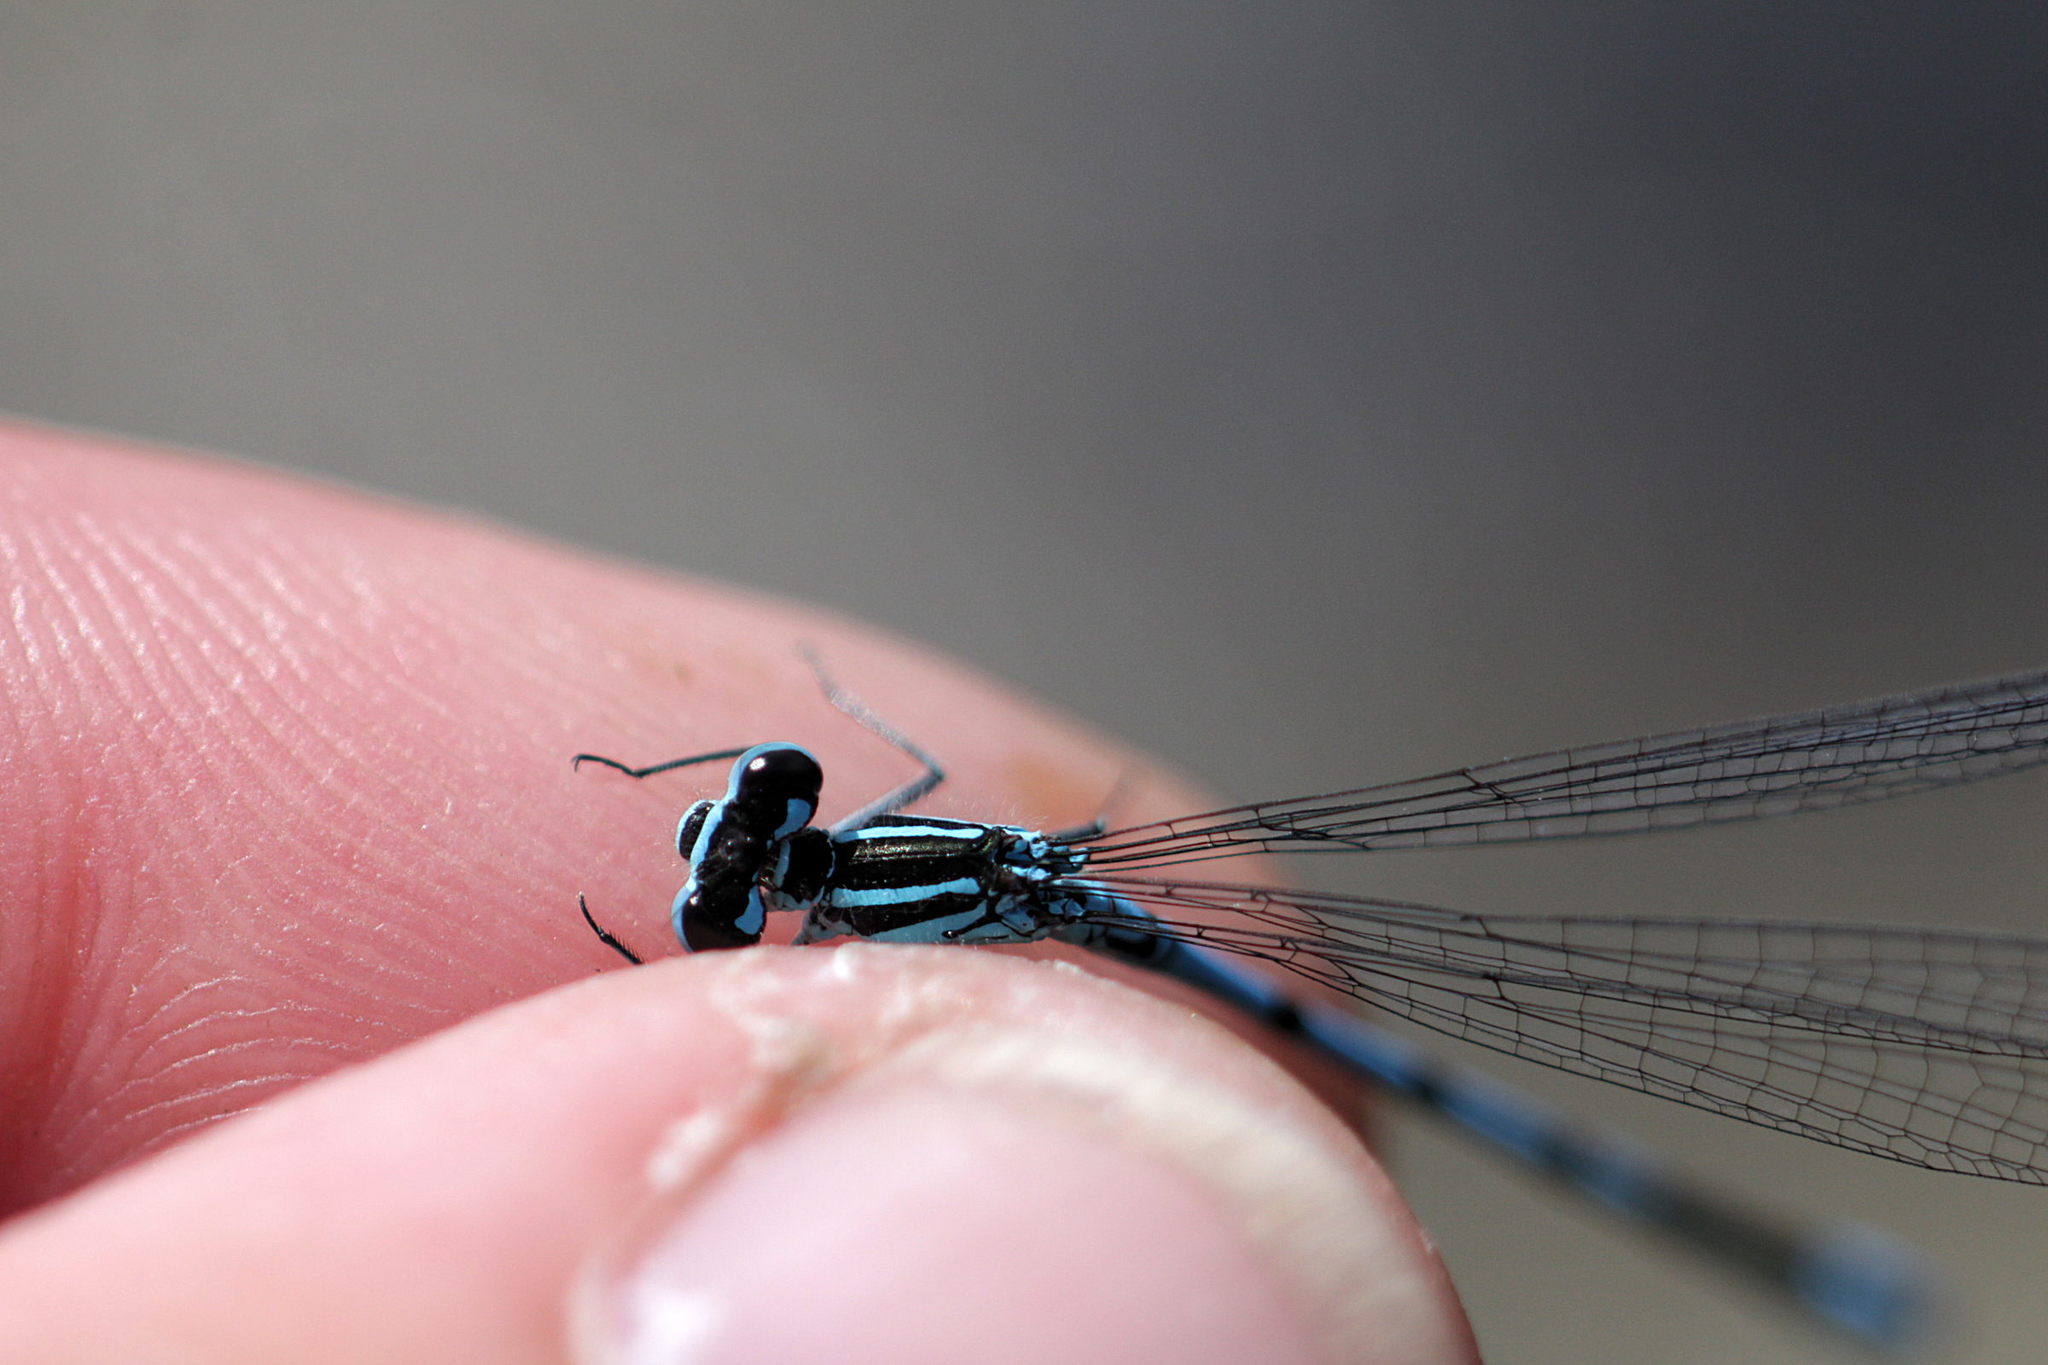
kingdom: Animalia
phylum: Arthropoda
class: Insecta
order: Odonata
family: Coenagrionidae
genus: Coenagrion
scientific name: Coenagrion puella
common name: Azure damselfly
